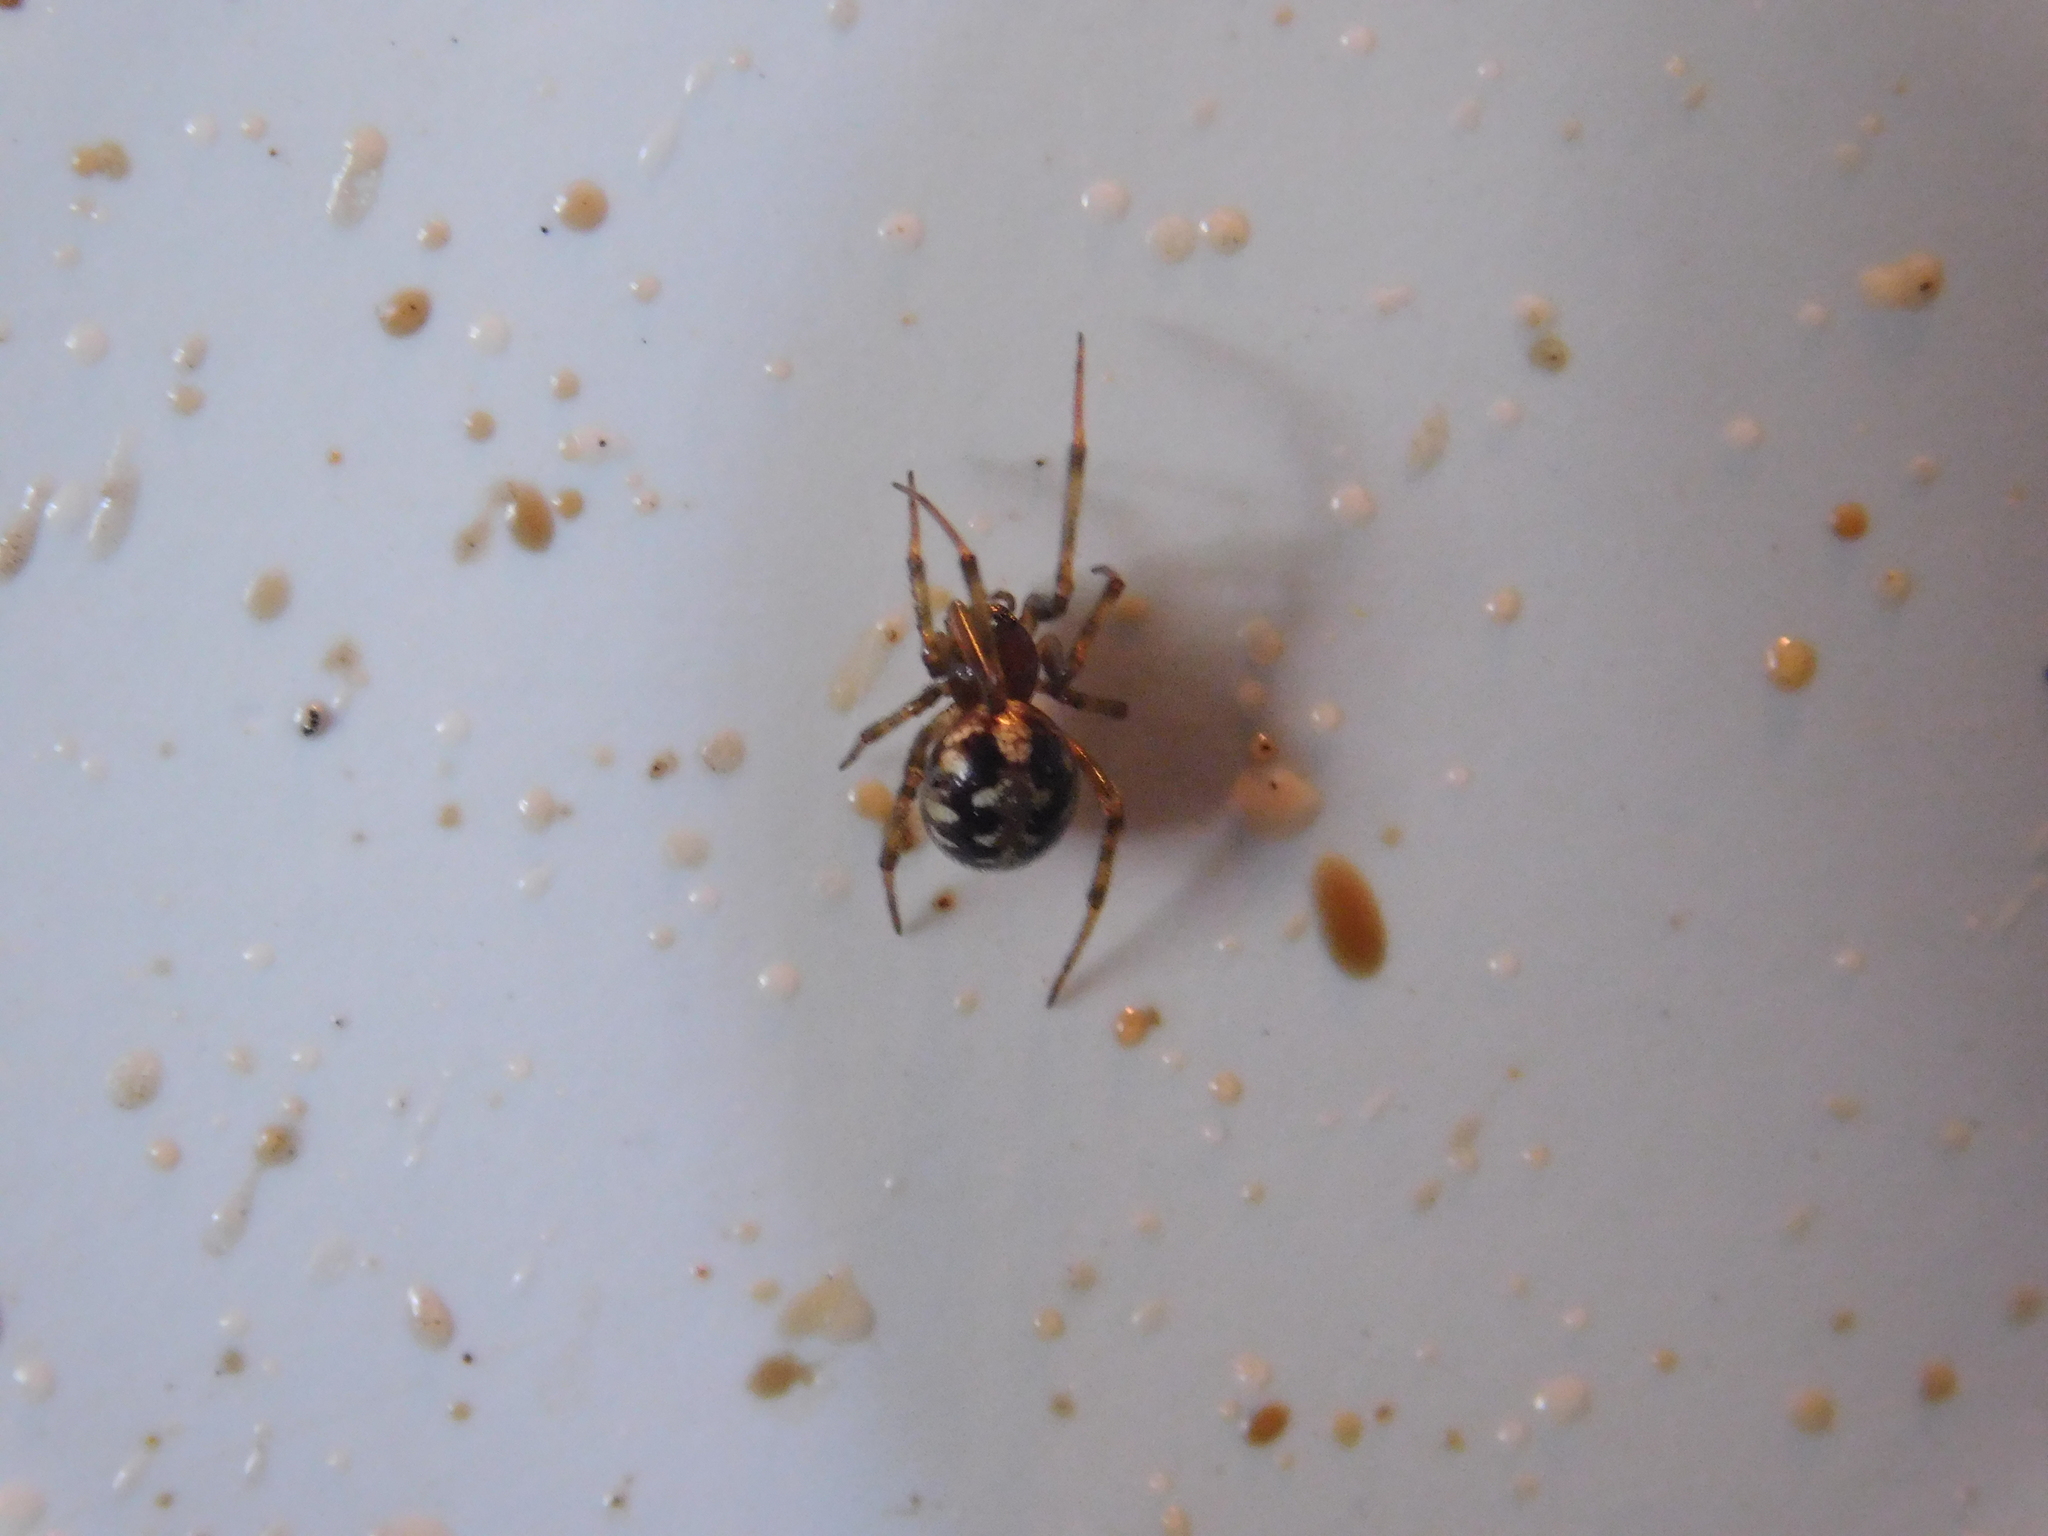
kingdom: Animalia
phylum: Arthropoda
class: Arachnida
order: Araneae
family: Theridiidae
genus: Steatoda
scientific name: Steatoda triangulosa
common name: Triangulate bud spider
